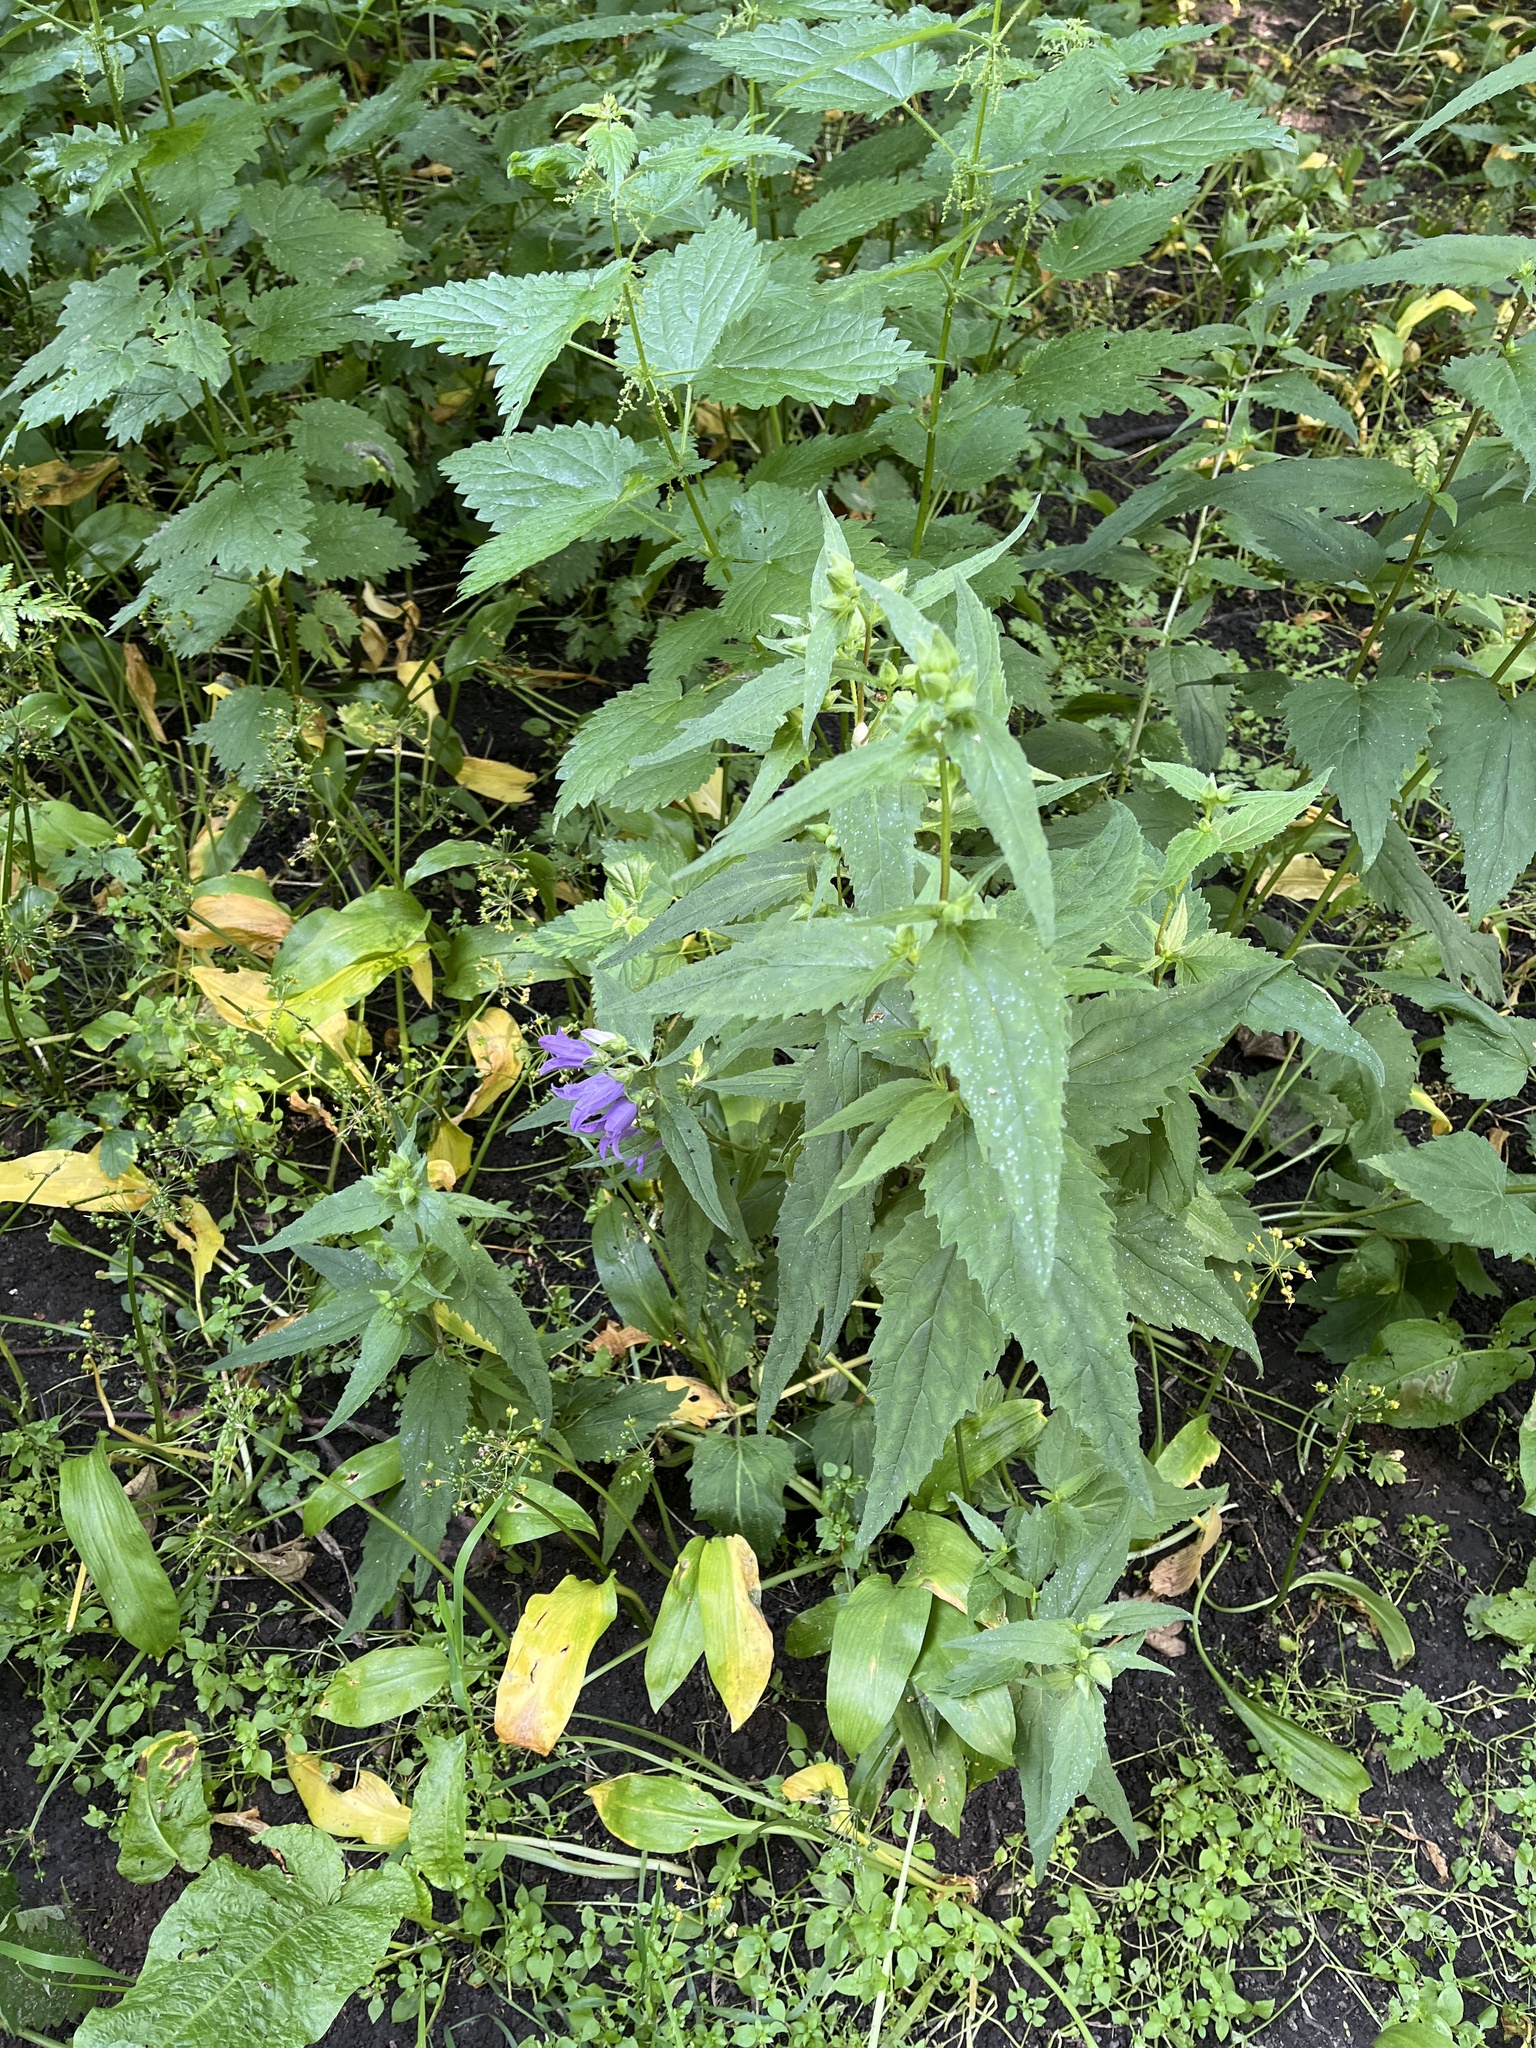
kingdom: Plantae
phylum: Tracheophyta
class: Magnoliopsida
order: Asterales
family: Campanulaceae
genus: Campanula
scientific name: Campanula trachelium
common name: Nettle-leaved bellflower
